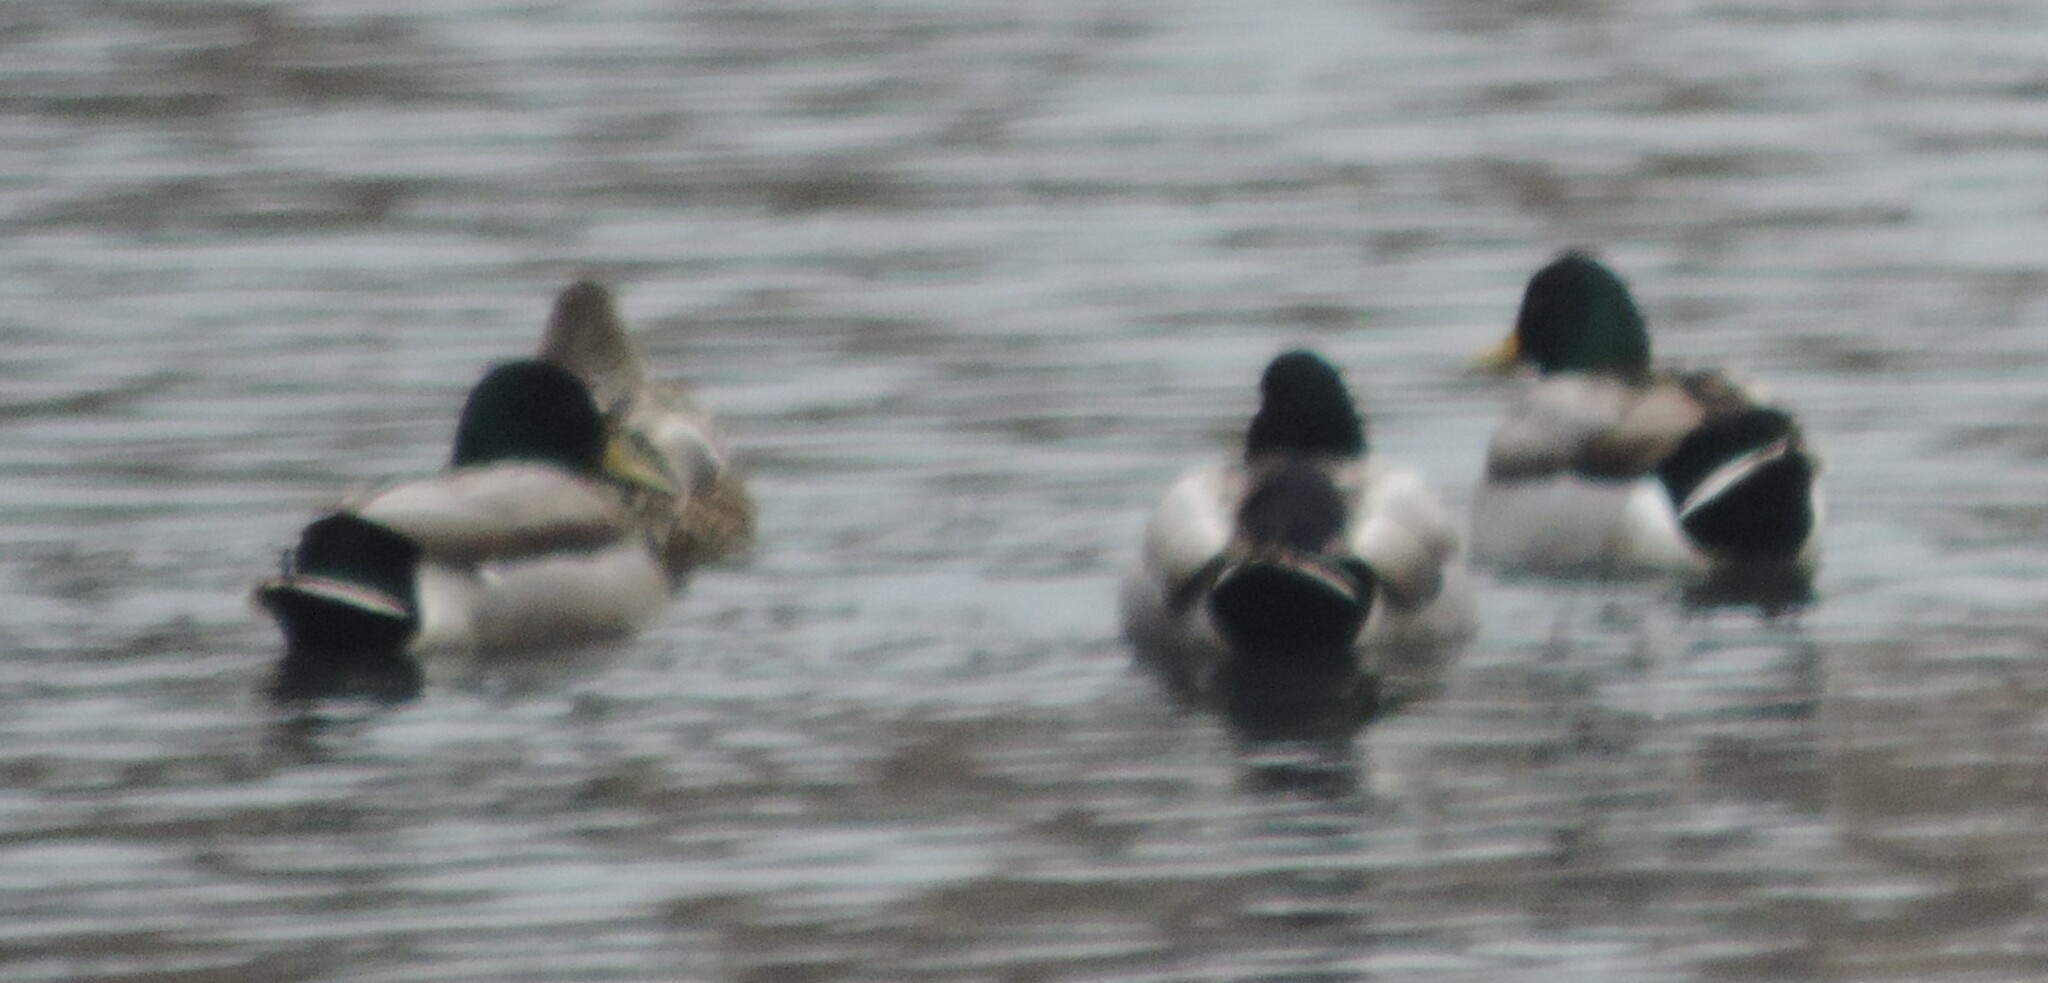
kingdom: Animalia
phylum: Chordata
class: Aves
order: Anseriformes
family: Anatidae
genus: Anas
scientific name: Anas platyrhynchos
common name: Mallard
